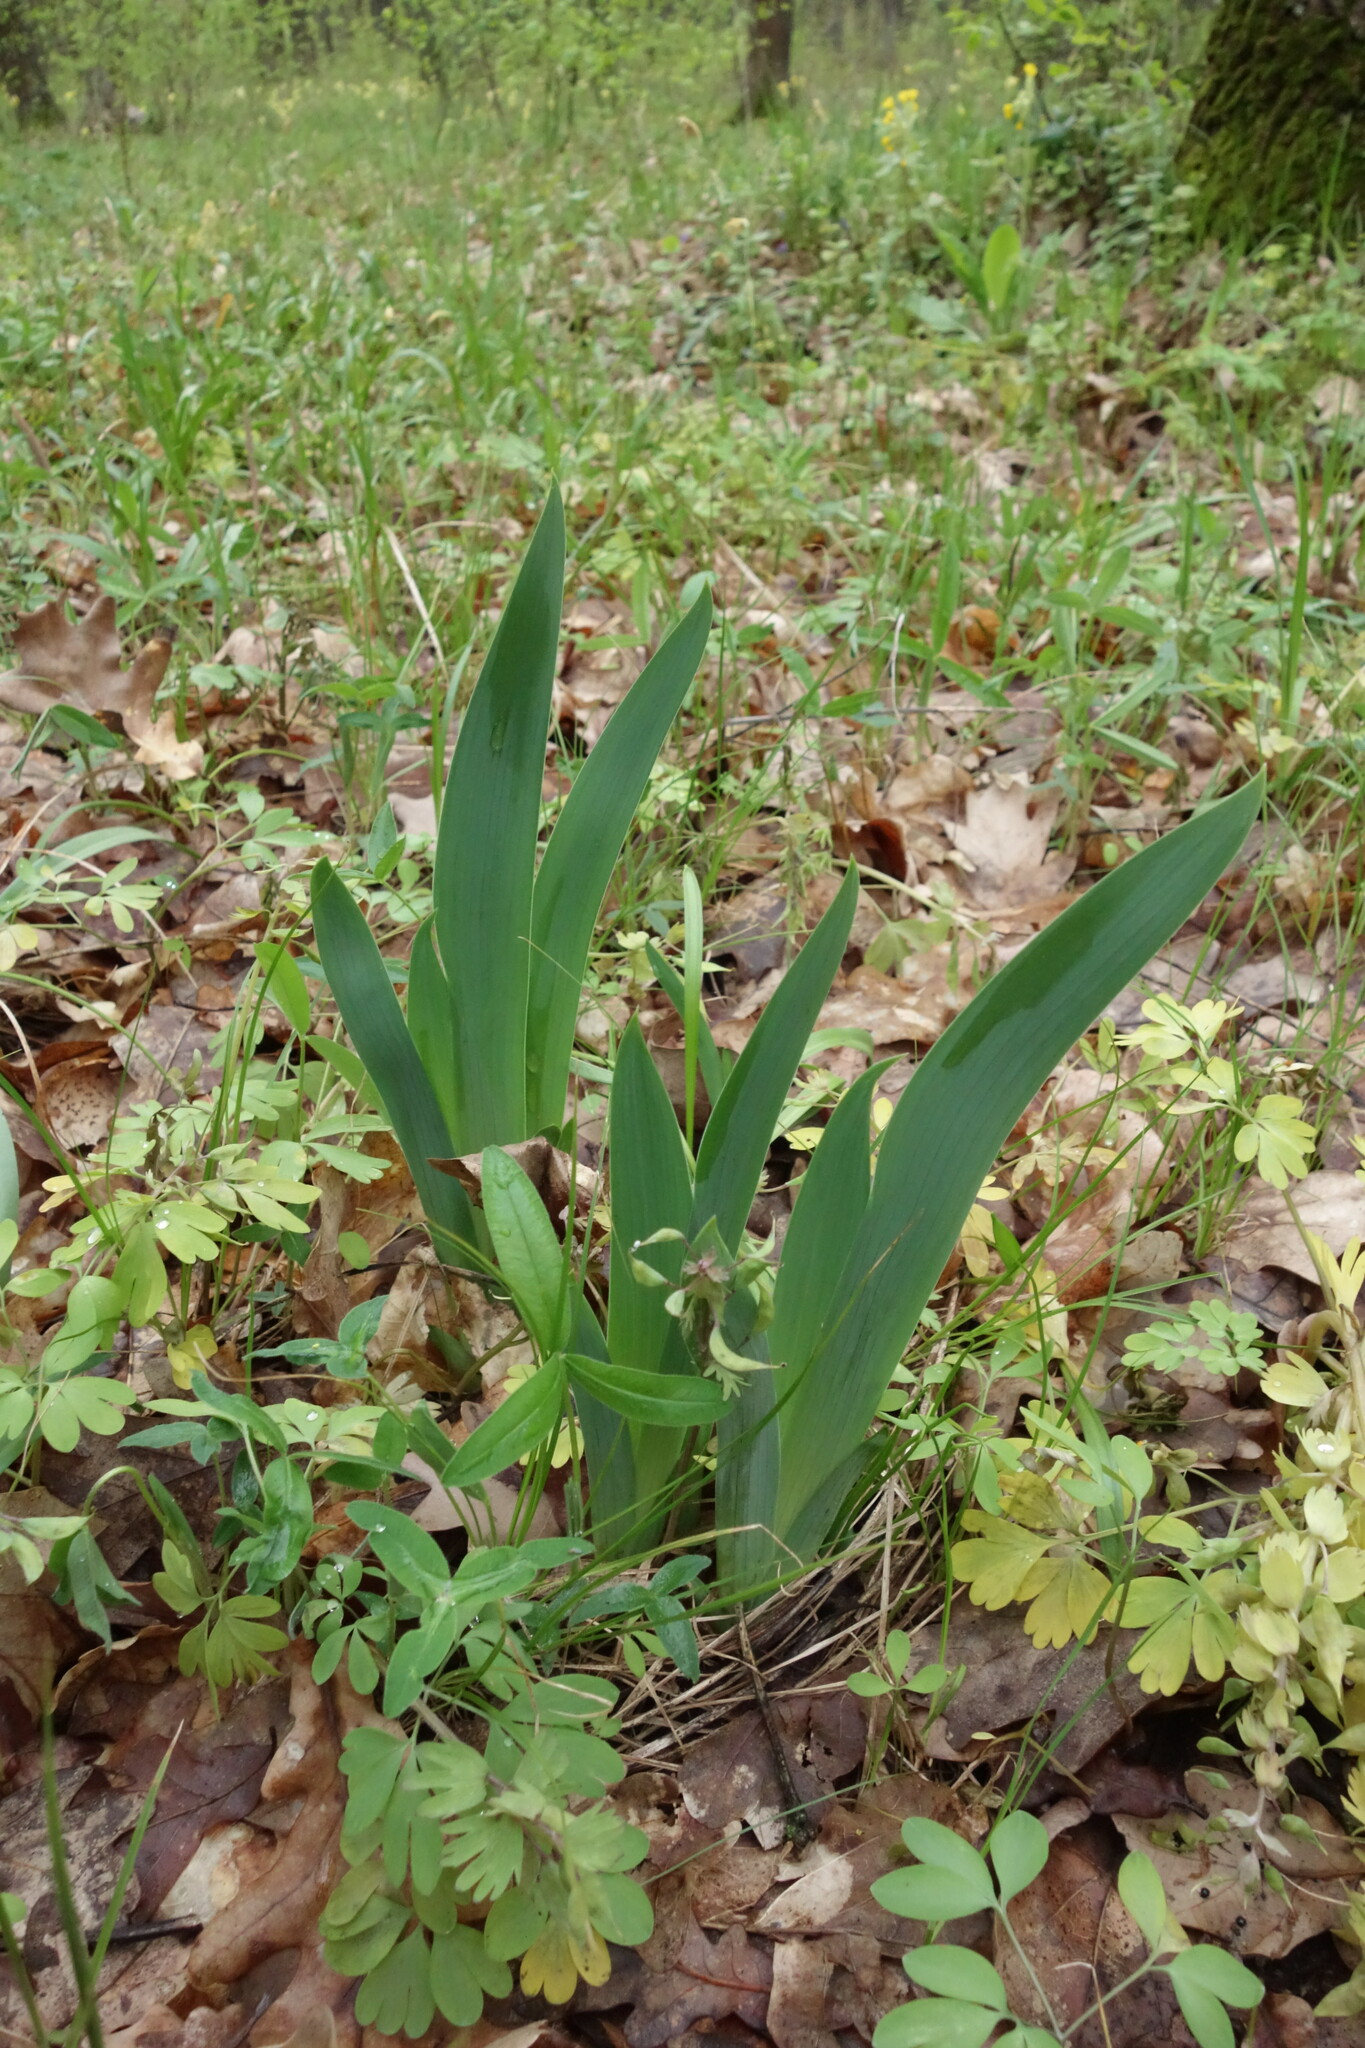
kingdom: Plantae
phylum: Tracheophyta
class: Liliopsida
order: Asparagales
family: Iridaceae
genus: Iris
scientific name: Iris aphylla
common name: Stool iris
